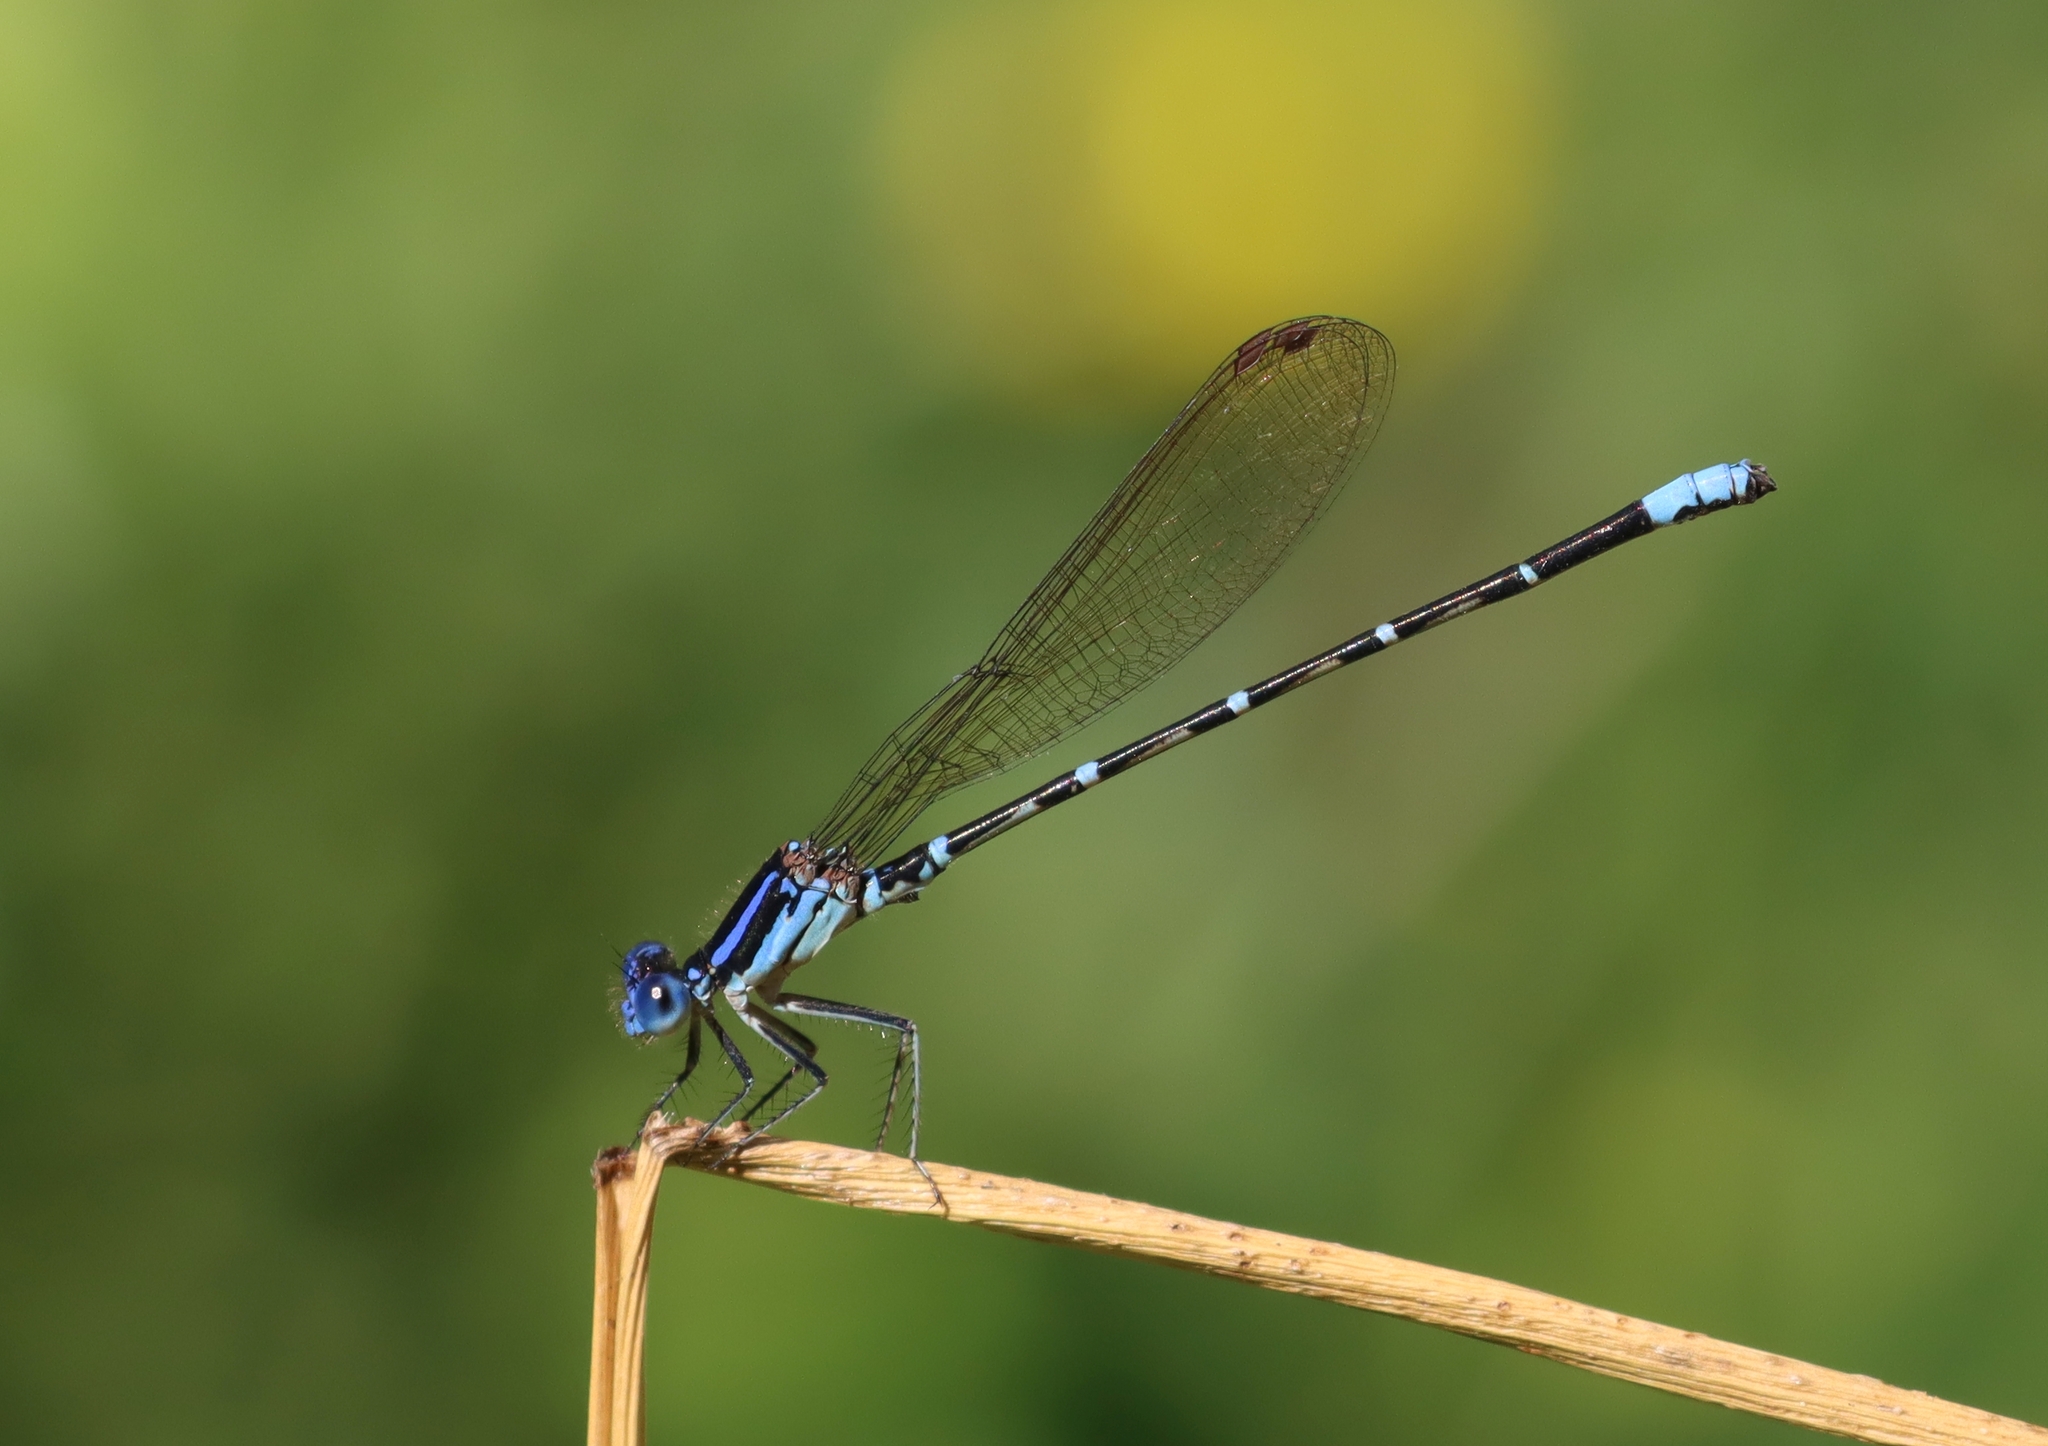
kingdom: Animalia
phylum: Arthropoda
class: Insecta
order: Odonata
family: Coenagrionidae
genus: Argia
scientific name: Argia sedula
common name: Blue-ringed dancer
